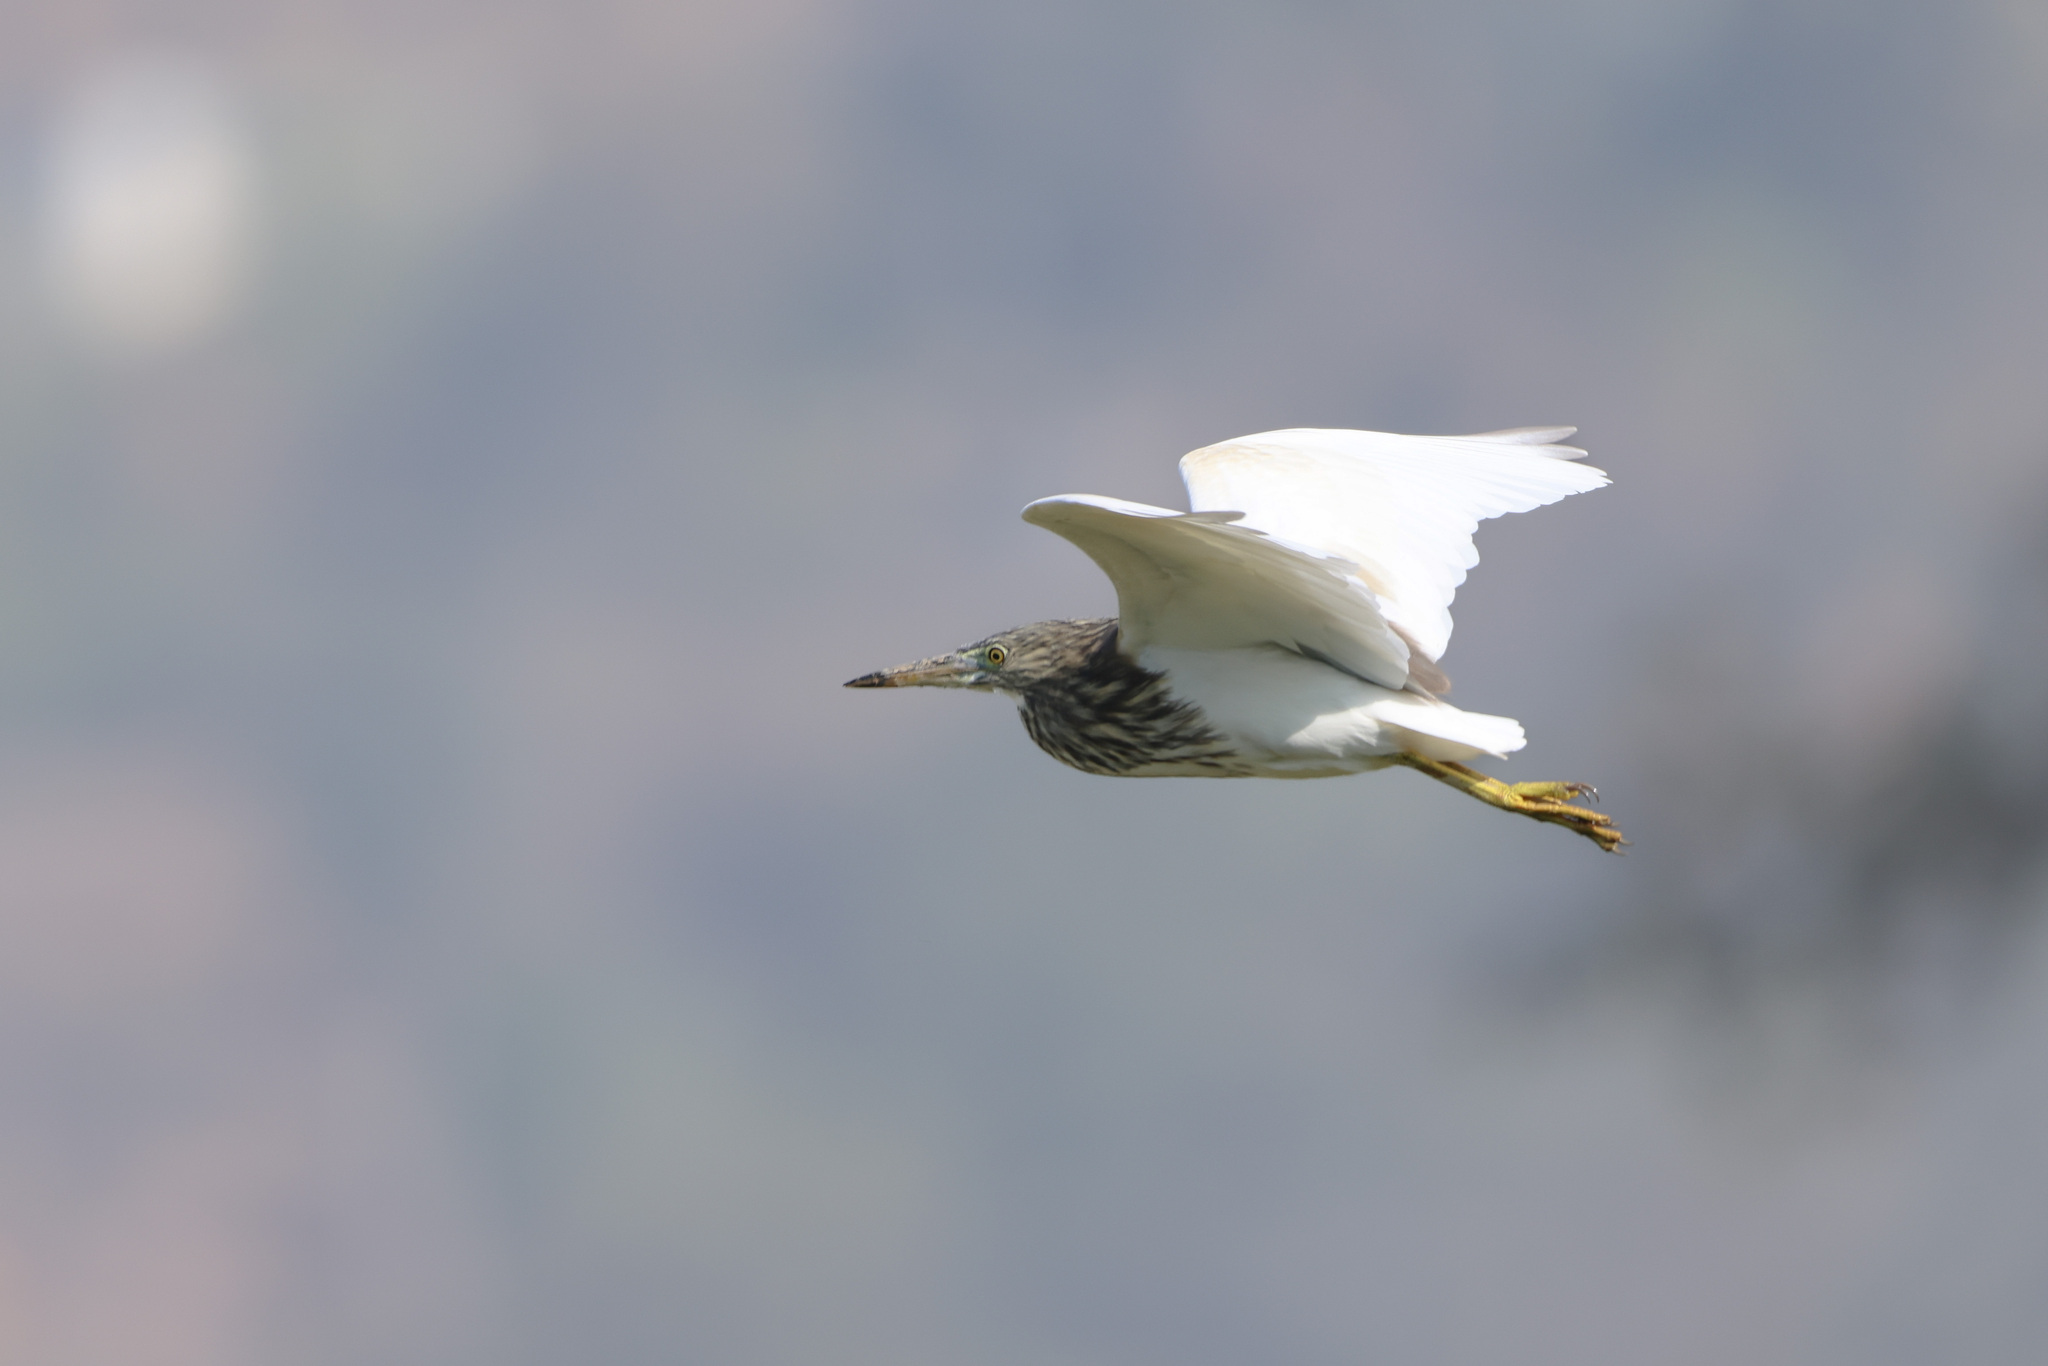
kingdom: Animalia
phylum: Chordata
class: Aves
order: Pelecaniformes
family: Ardeidae
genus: Ardeola
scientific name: Ardeola grayii
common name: Indian pond heron
